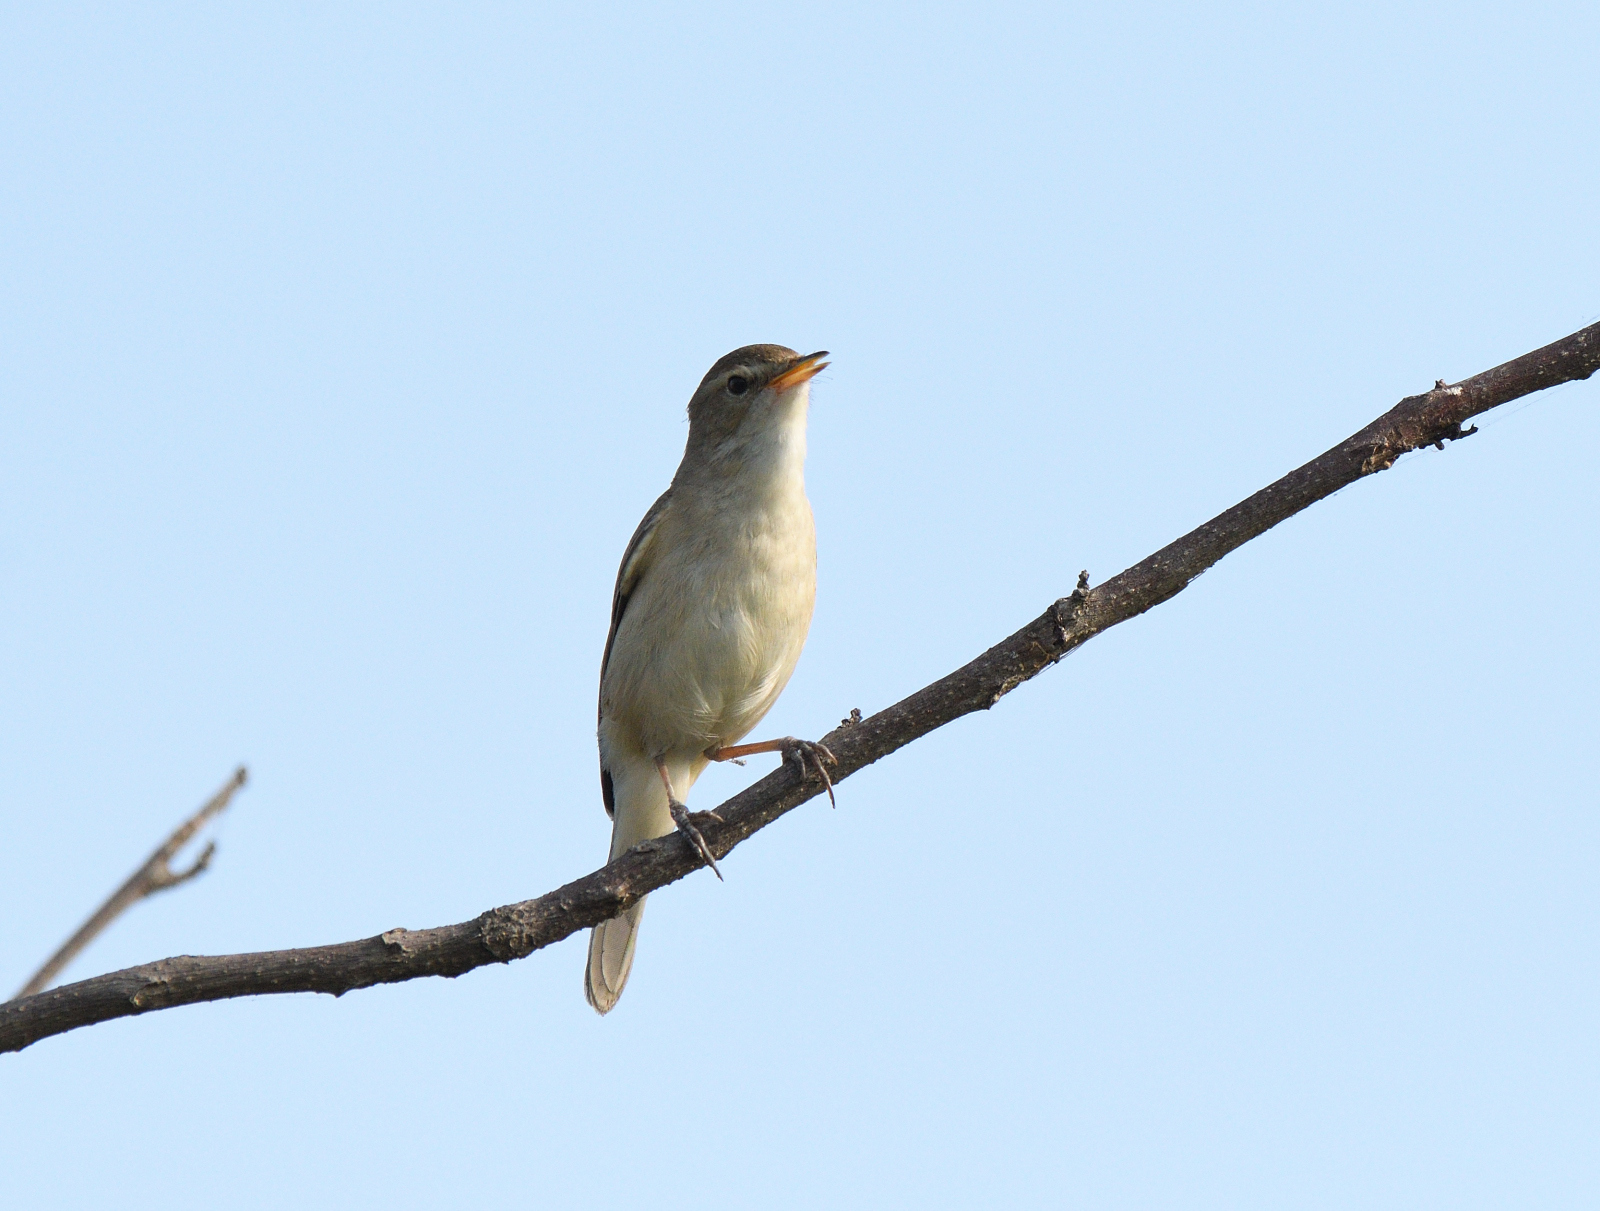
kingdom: Animalia
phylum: Chordata
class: Aves
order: Passeriformes
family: Acrocephalidae
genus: Iduna
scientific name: Iduna caligata
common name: Booted warbler
